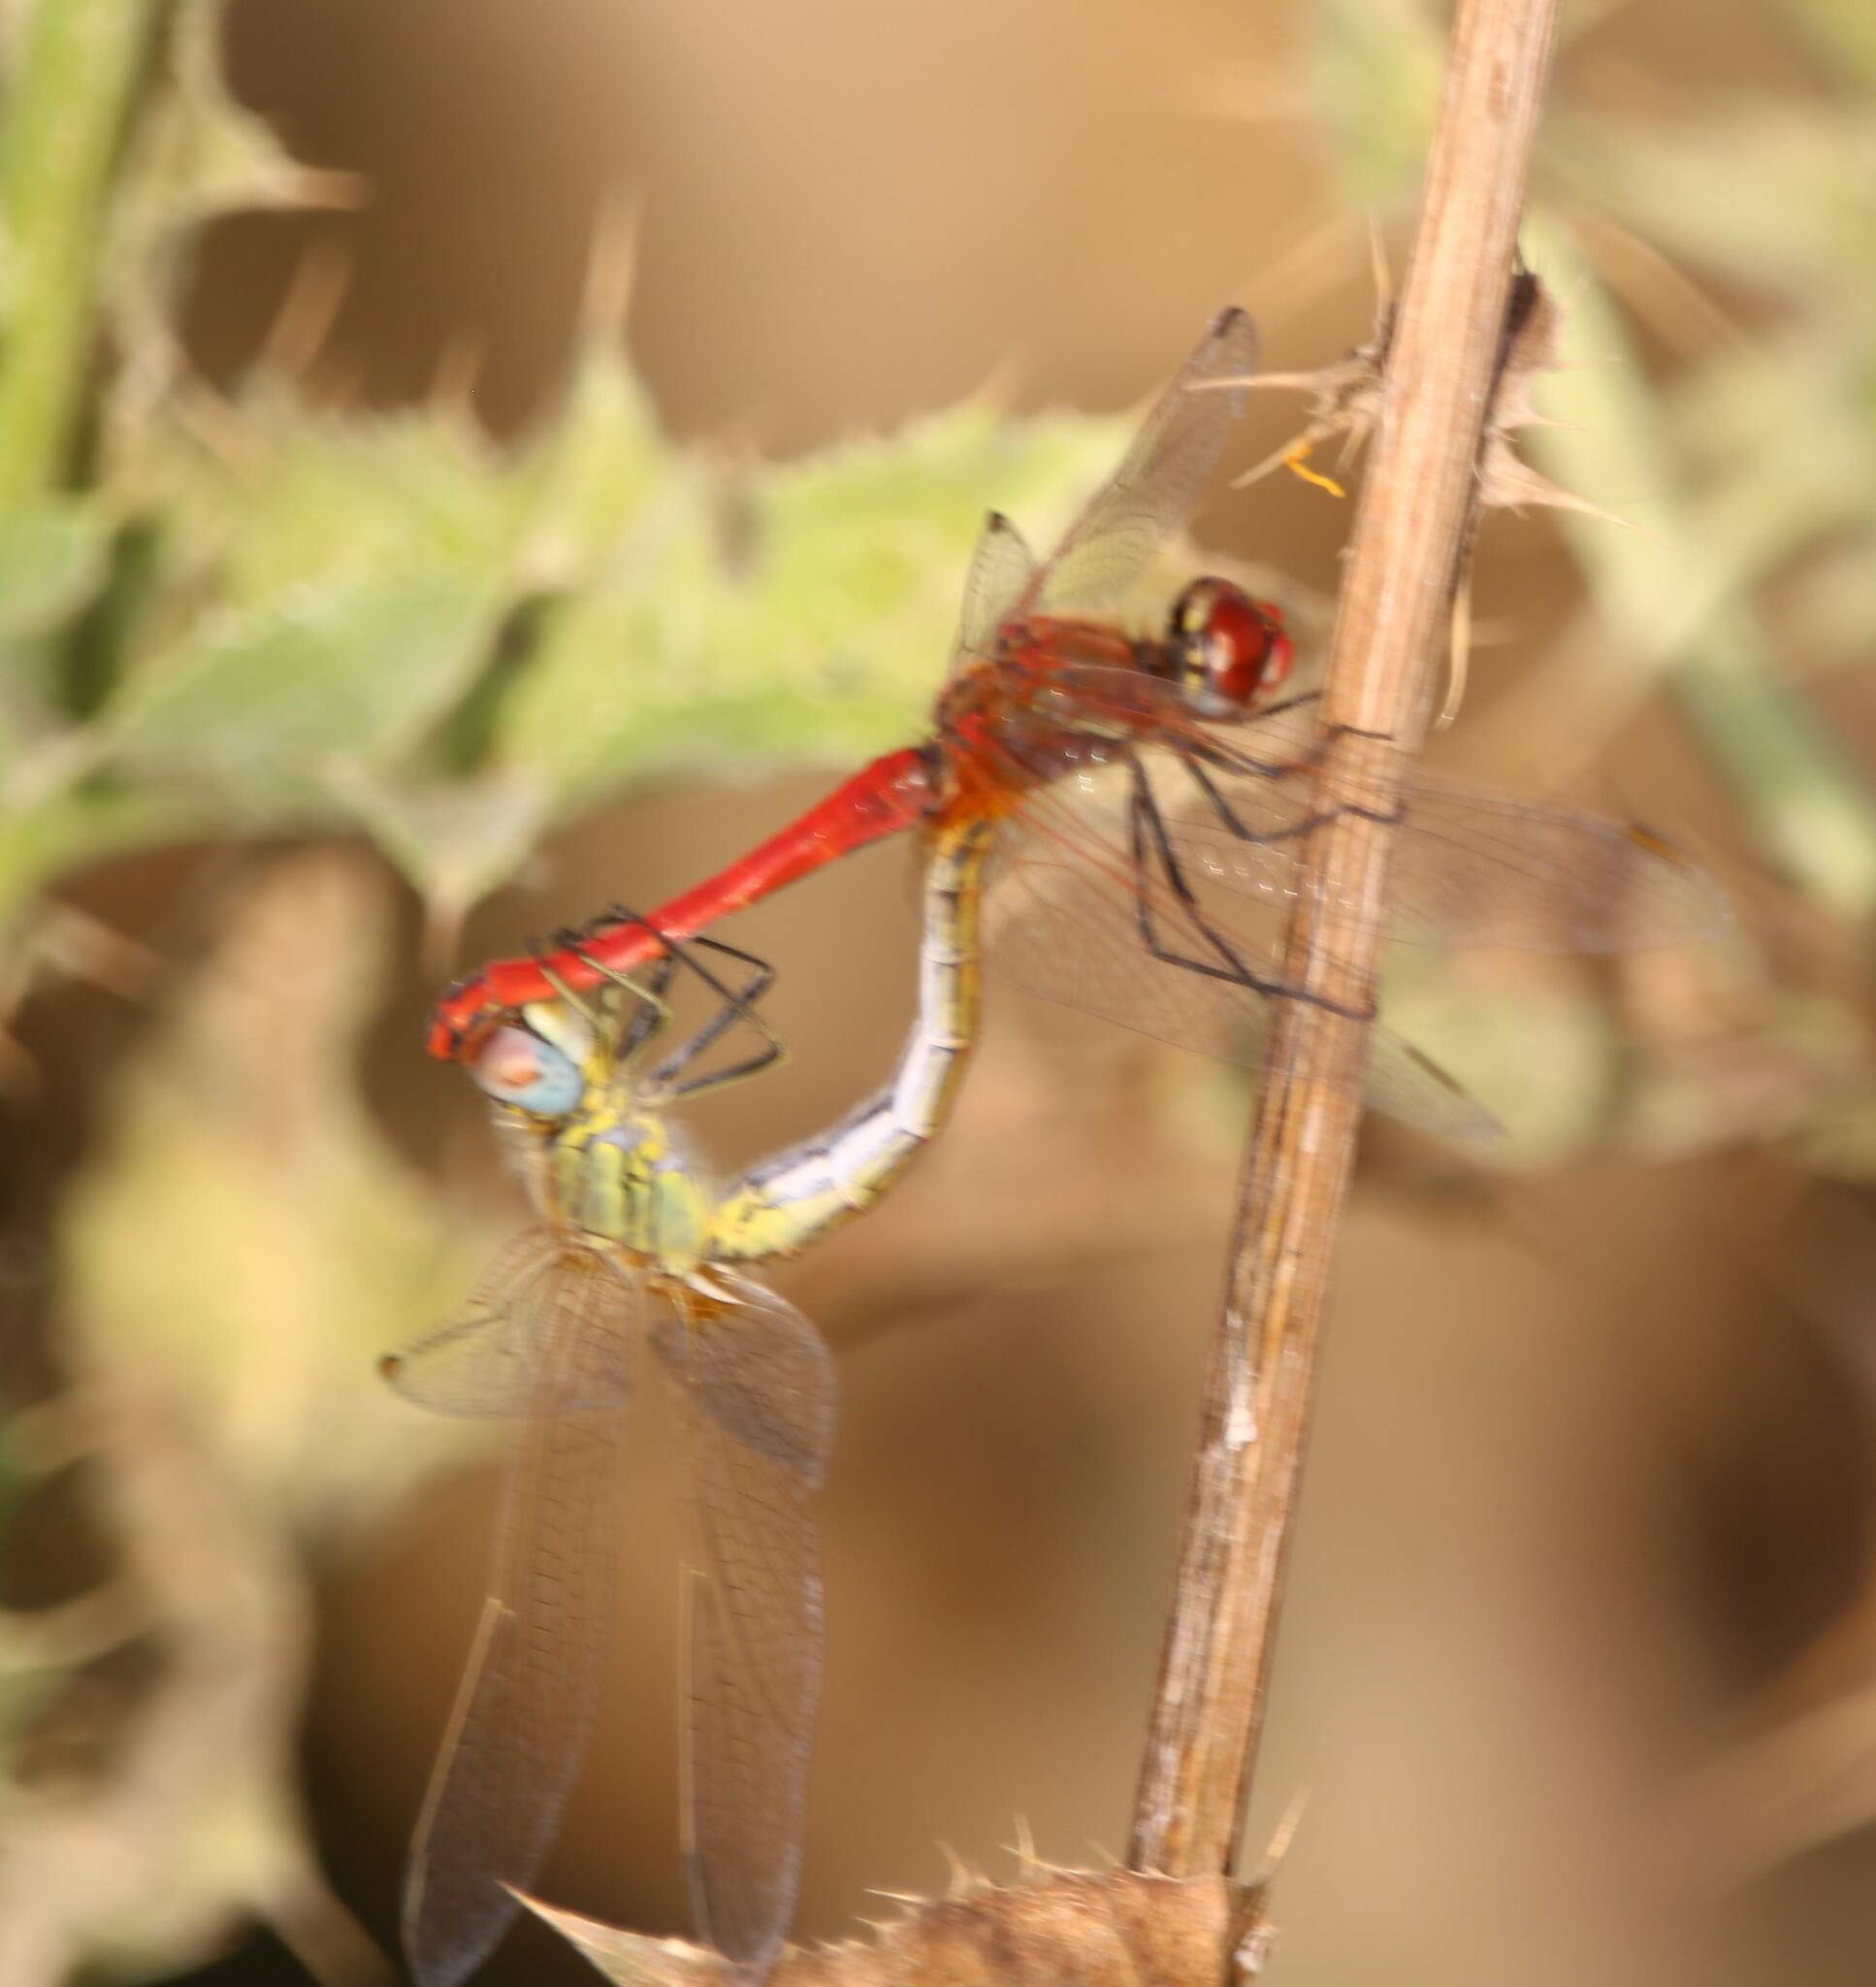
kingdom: Animalia
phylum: Arthropoda
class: Insecta
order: Odonata
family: Libellulidae
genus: Sympetrum
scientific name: Sympetrum fonscolombii
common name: Red-veined darter
